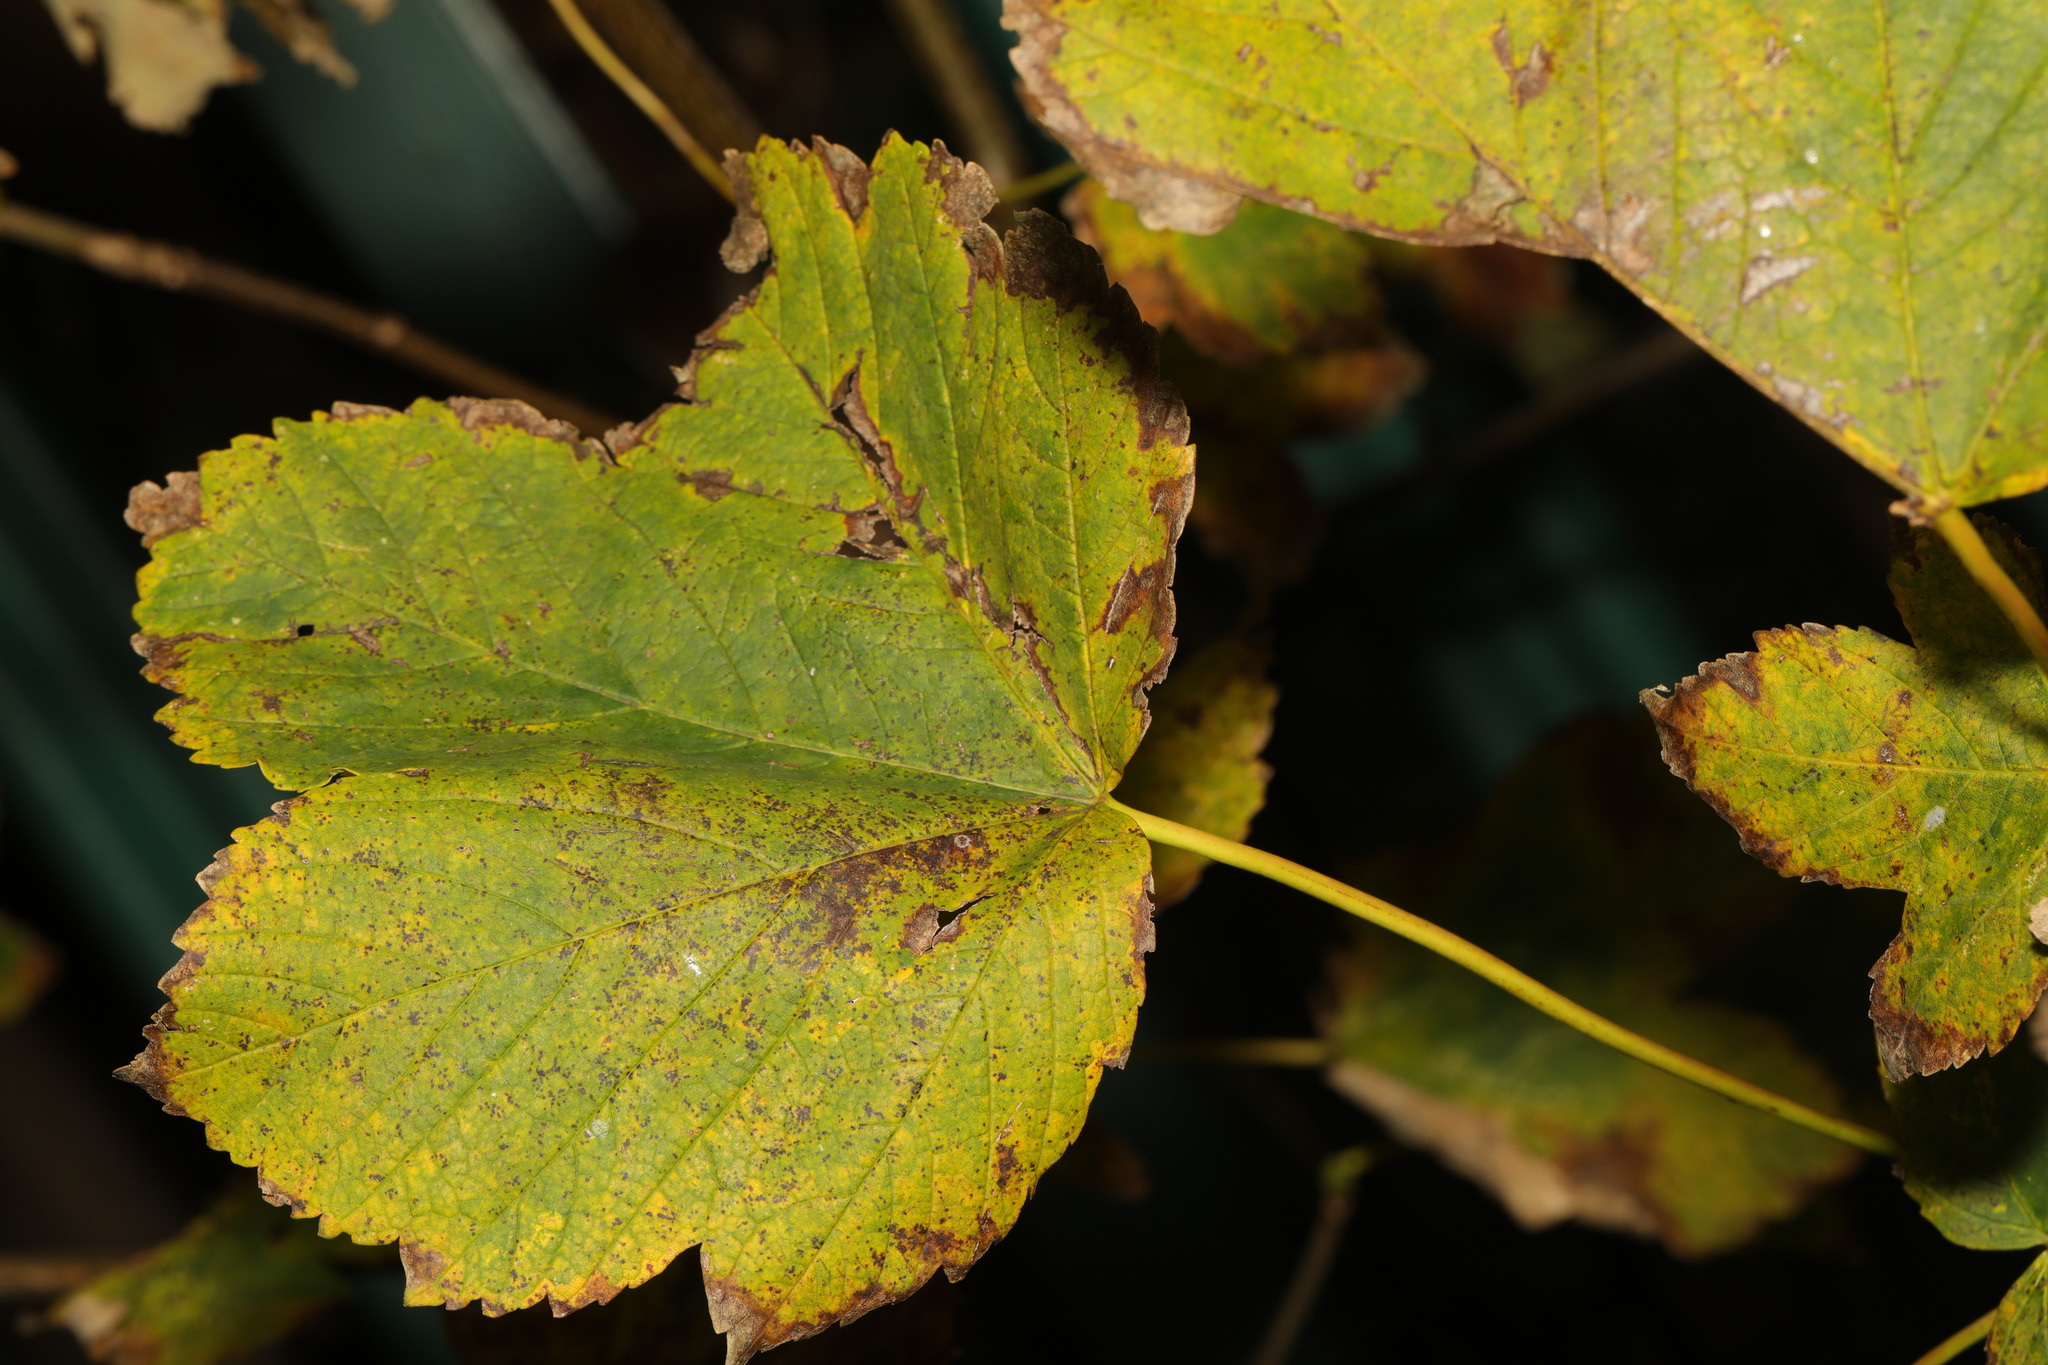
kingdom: Plantae
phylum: Tracheophyta
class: Magnoliopsida
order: Sapindales
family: Sapindaceae
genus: Acer
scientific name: Acer pseudoplatanus
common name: Sycamore
